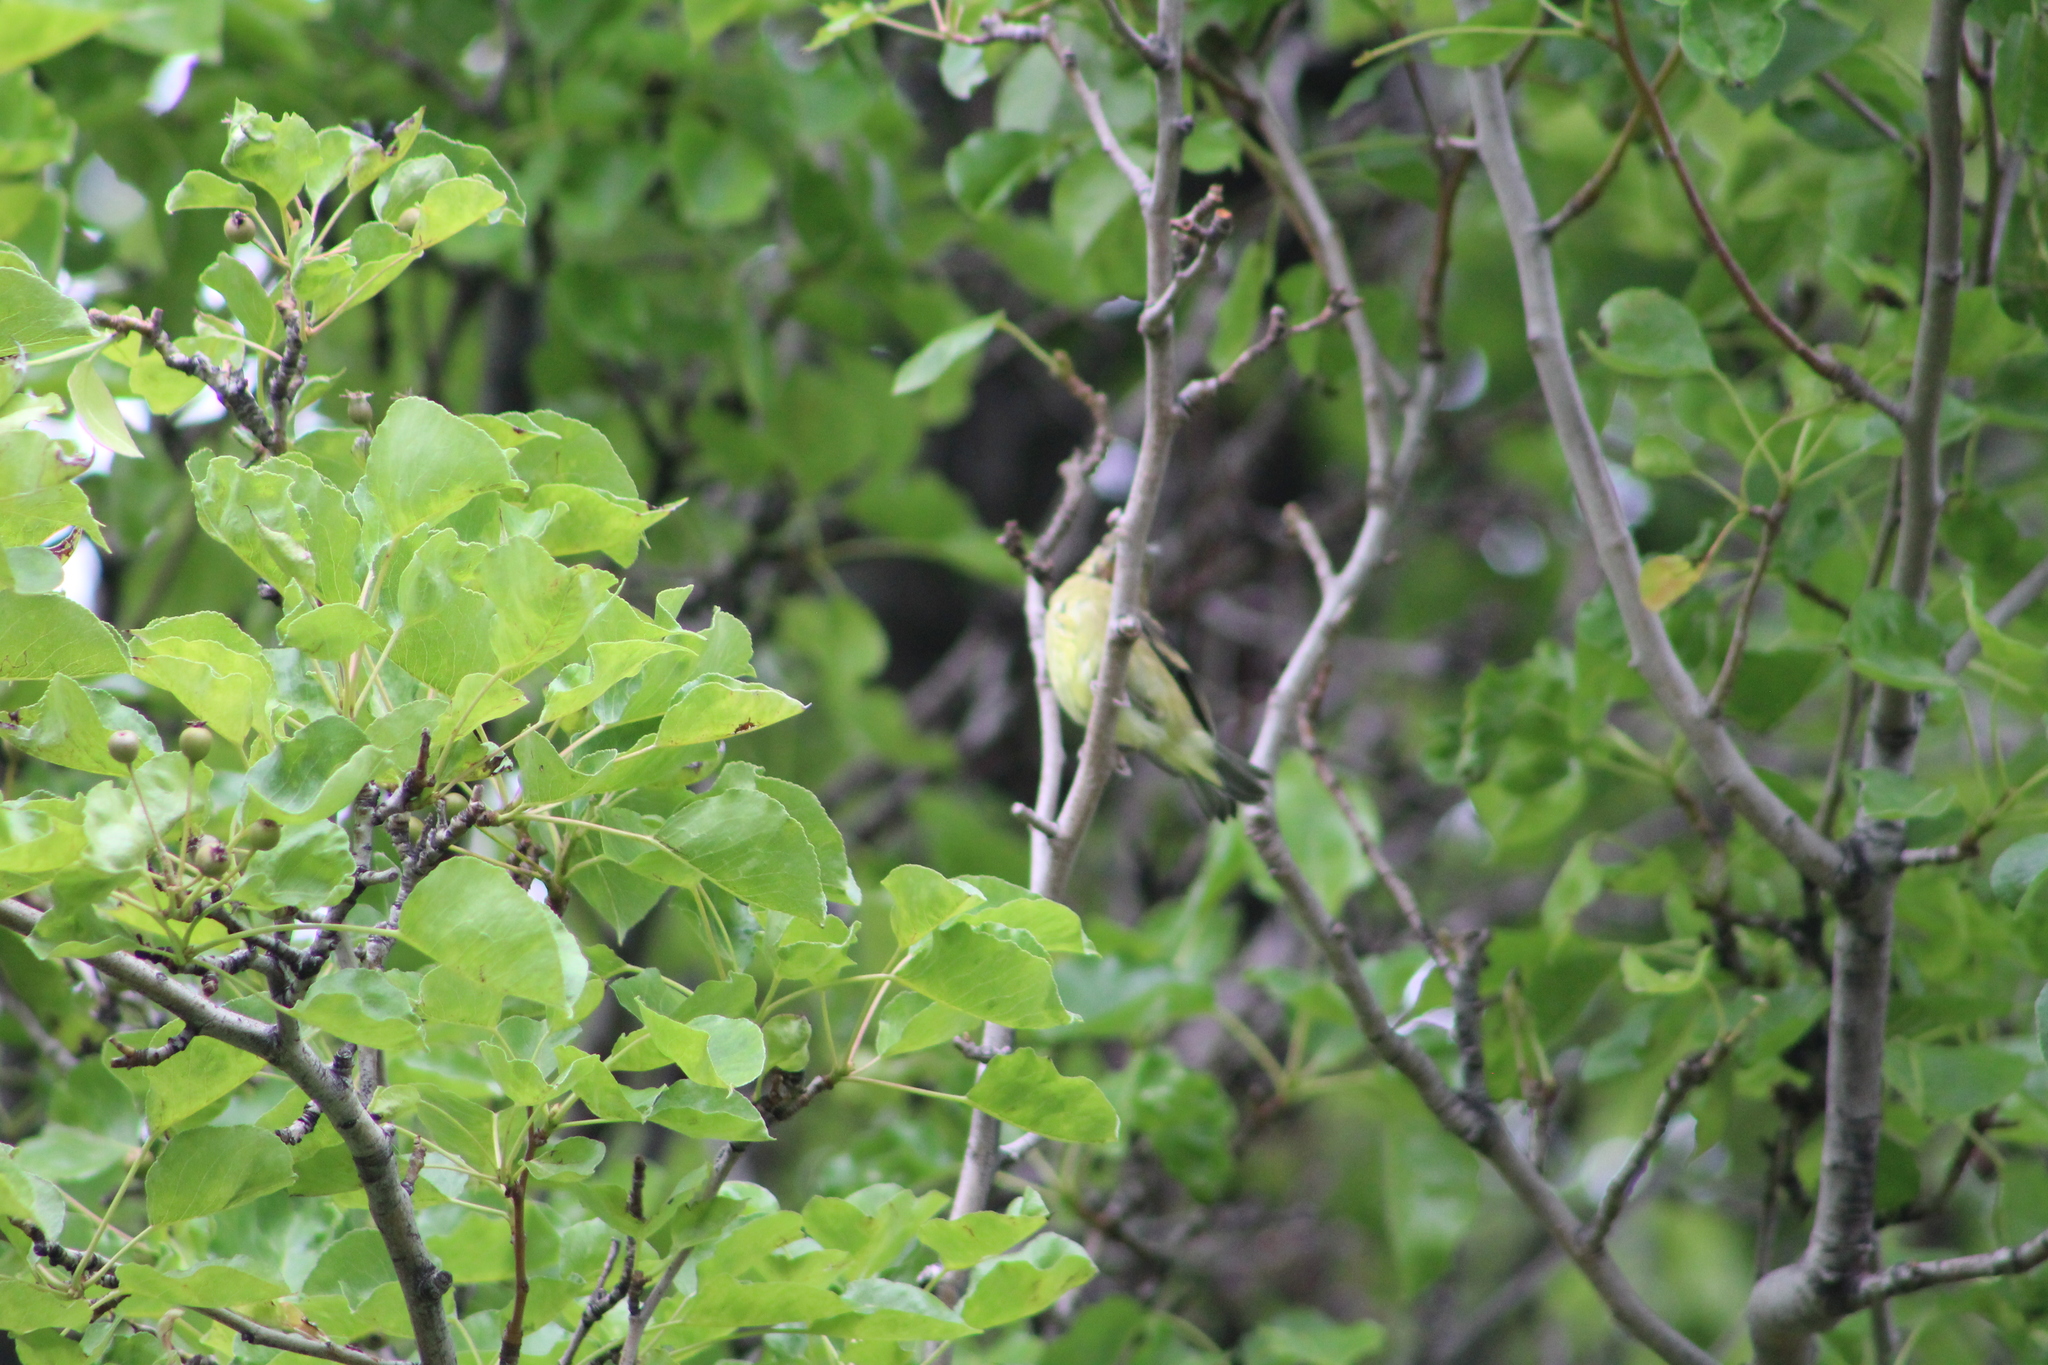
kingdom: Animalia
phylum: Chordata
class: Aves
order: Passeriformes
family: Fringillidae
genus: Spinus
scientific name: Spinus psaltria
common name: Lesser goldfinch
